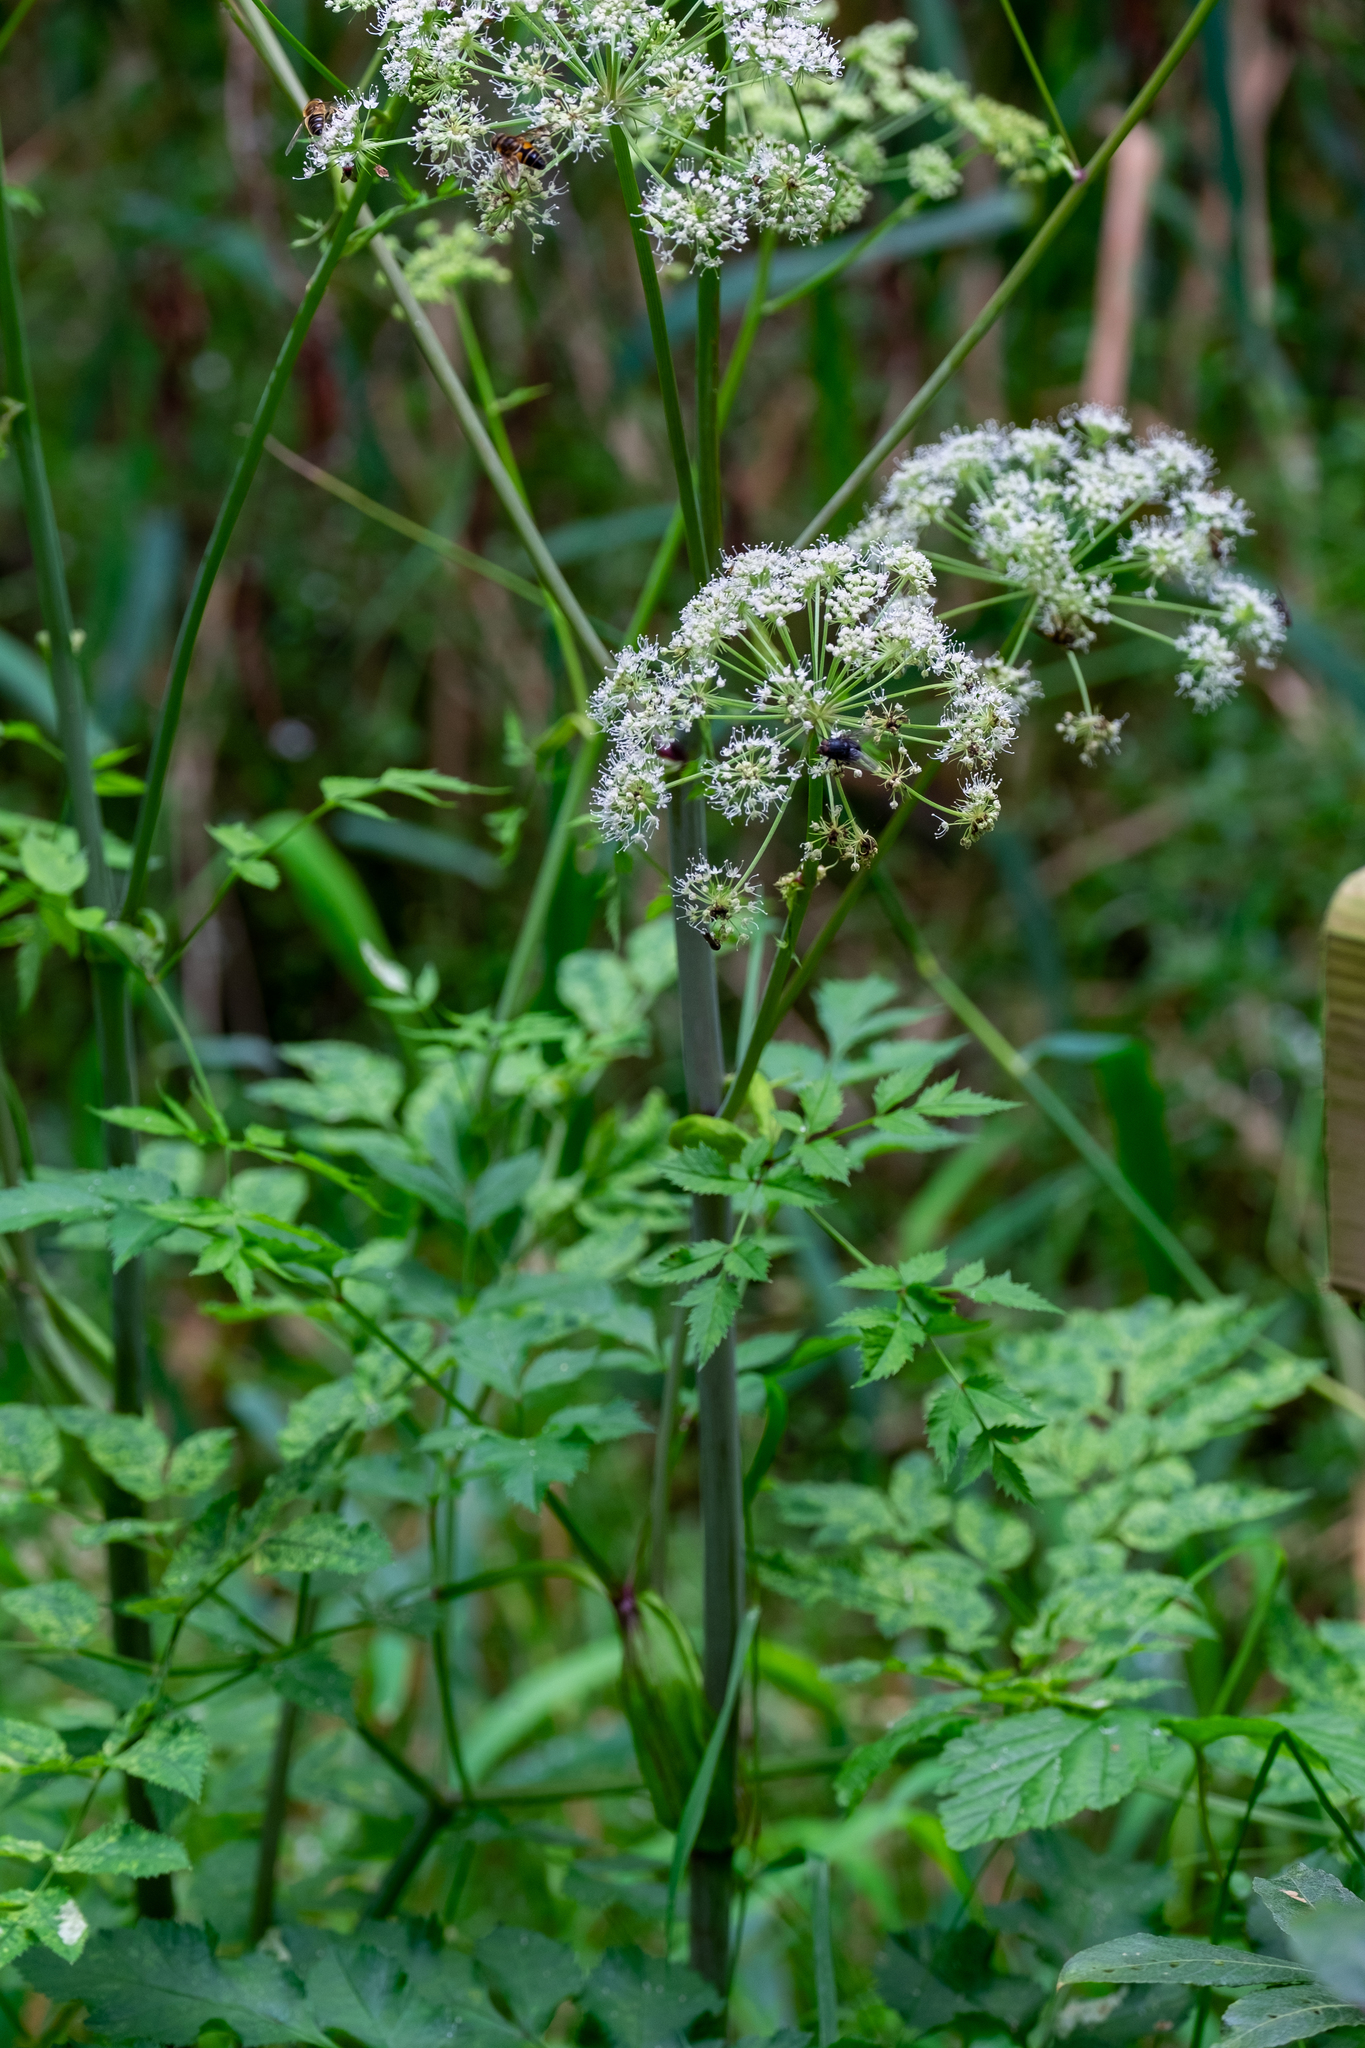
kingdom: Plantae
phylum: Tracheophyta
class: Magnoliopsida
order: Apiales
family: Apiaceae
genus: Angelica
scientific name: Angelica sylvestris
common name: Wild angelica
